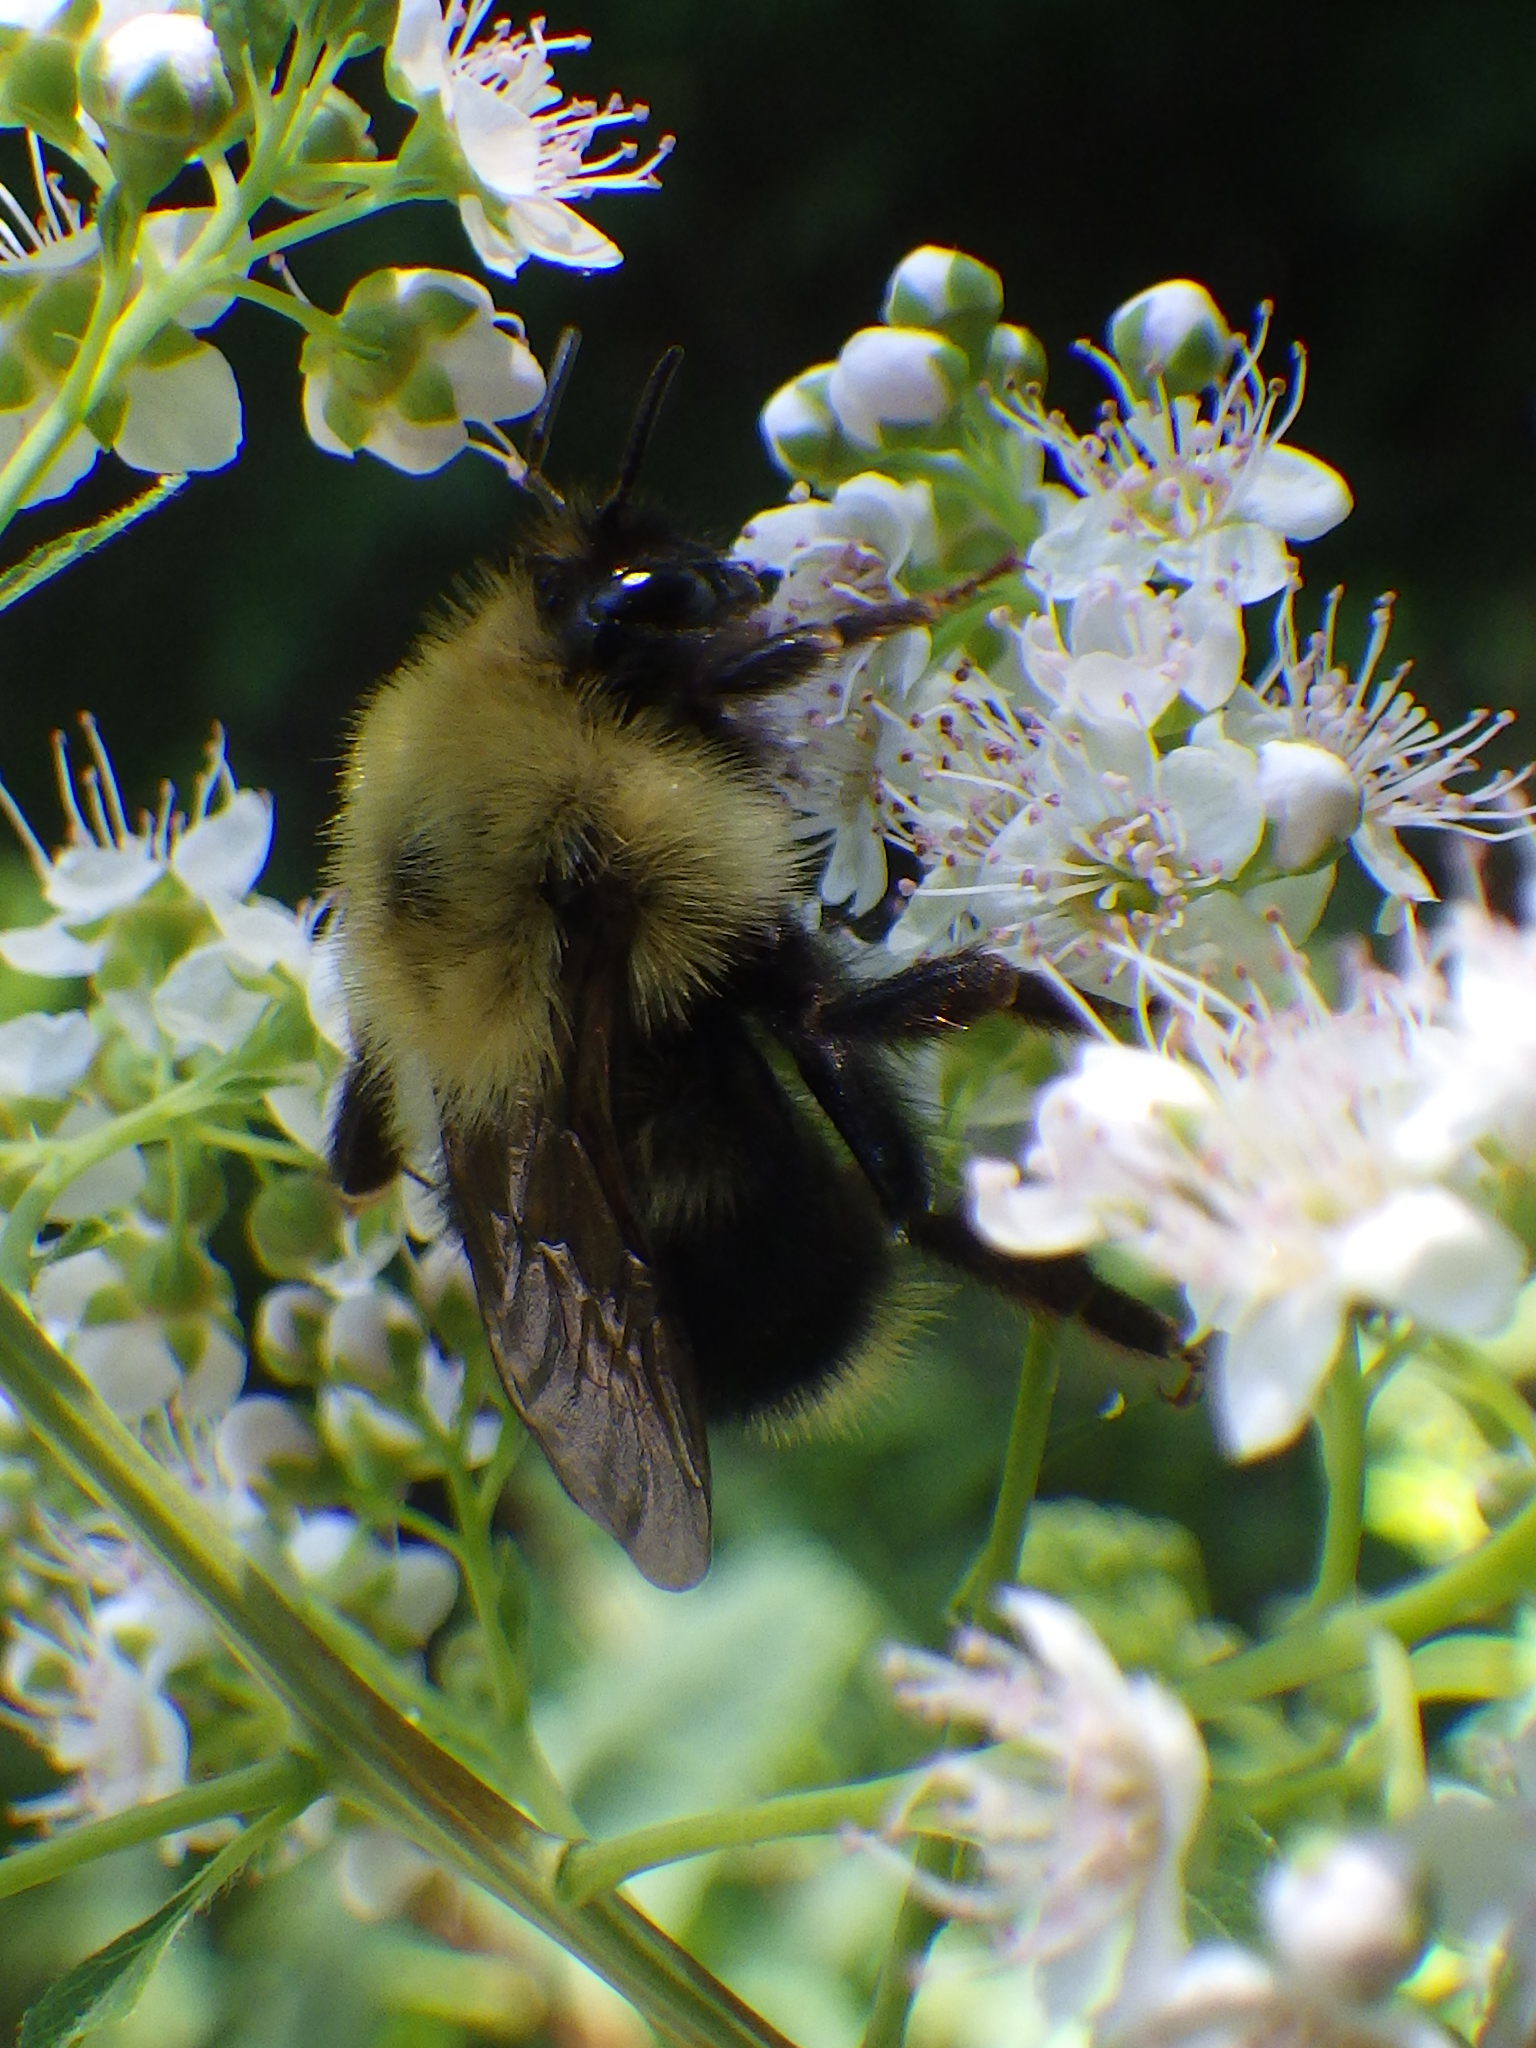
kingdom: Animalia
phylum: Arthropoda
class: Insecta
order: Hymenoptera
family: Apidae
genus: Bombus
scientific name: Bombus flavidus
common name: Fernald cuckoo bumble bee
